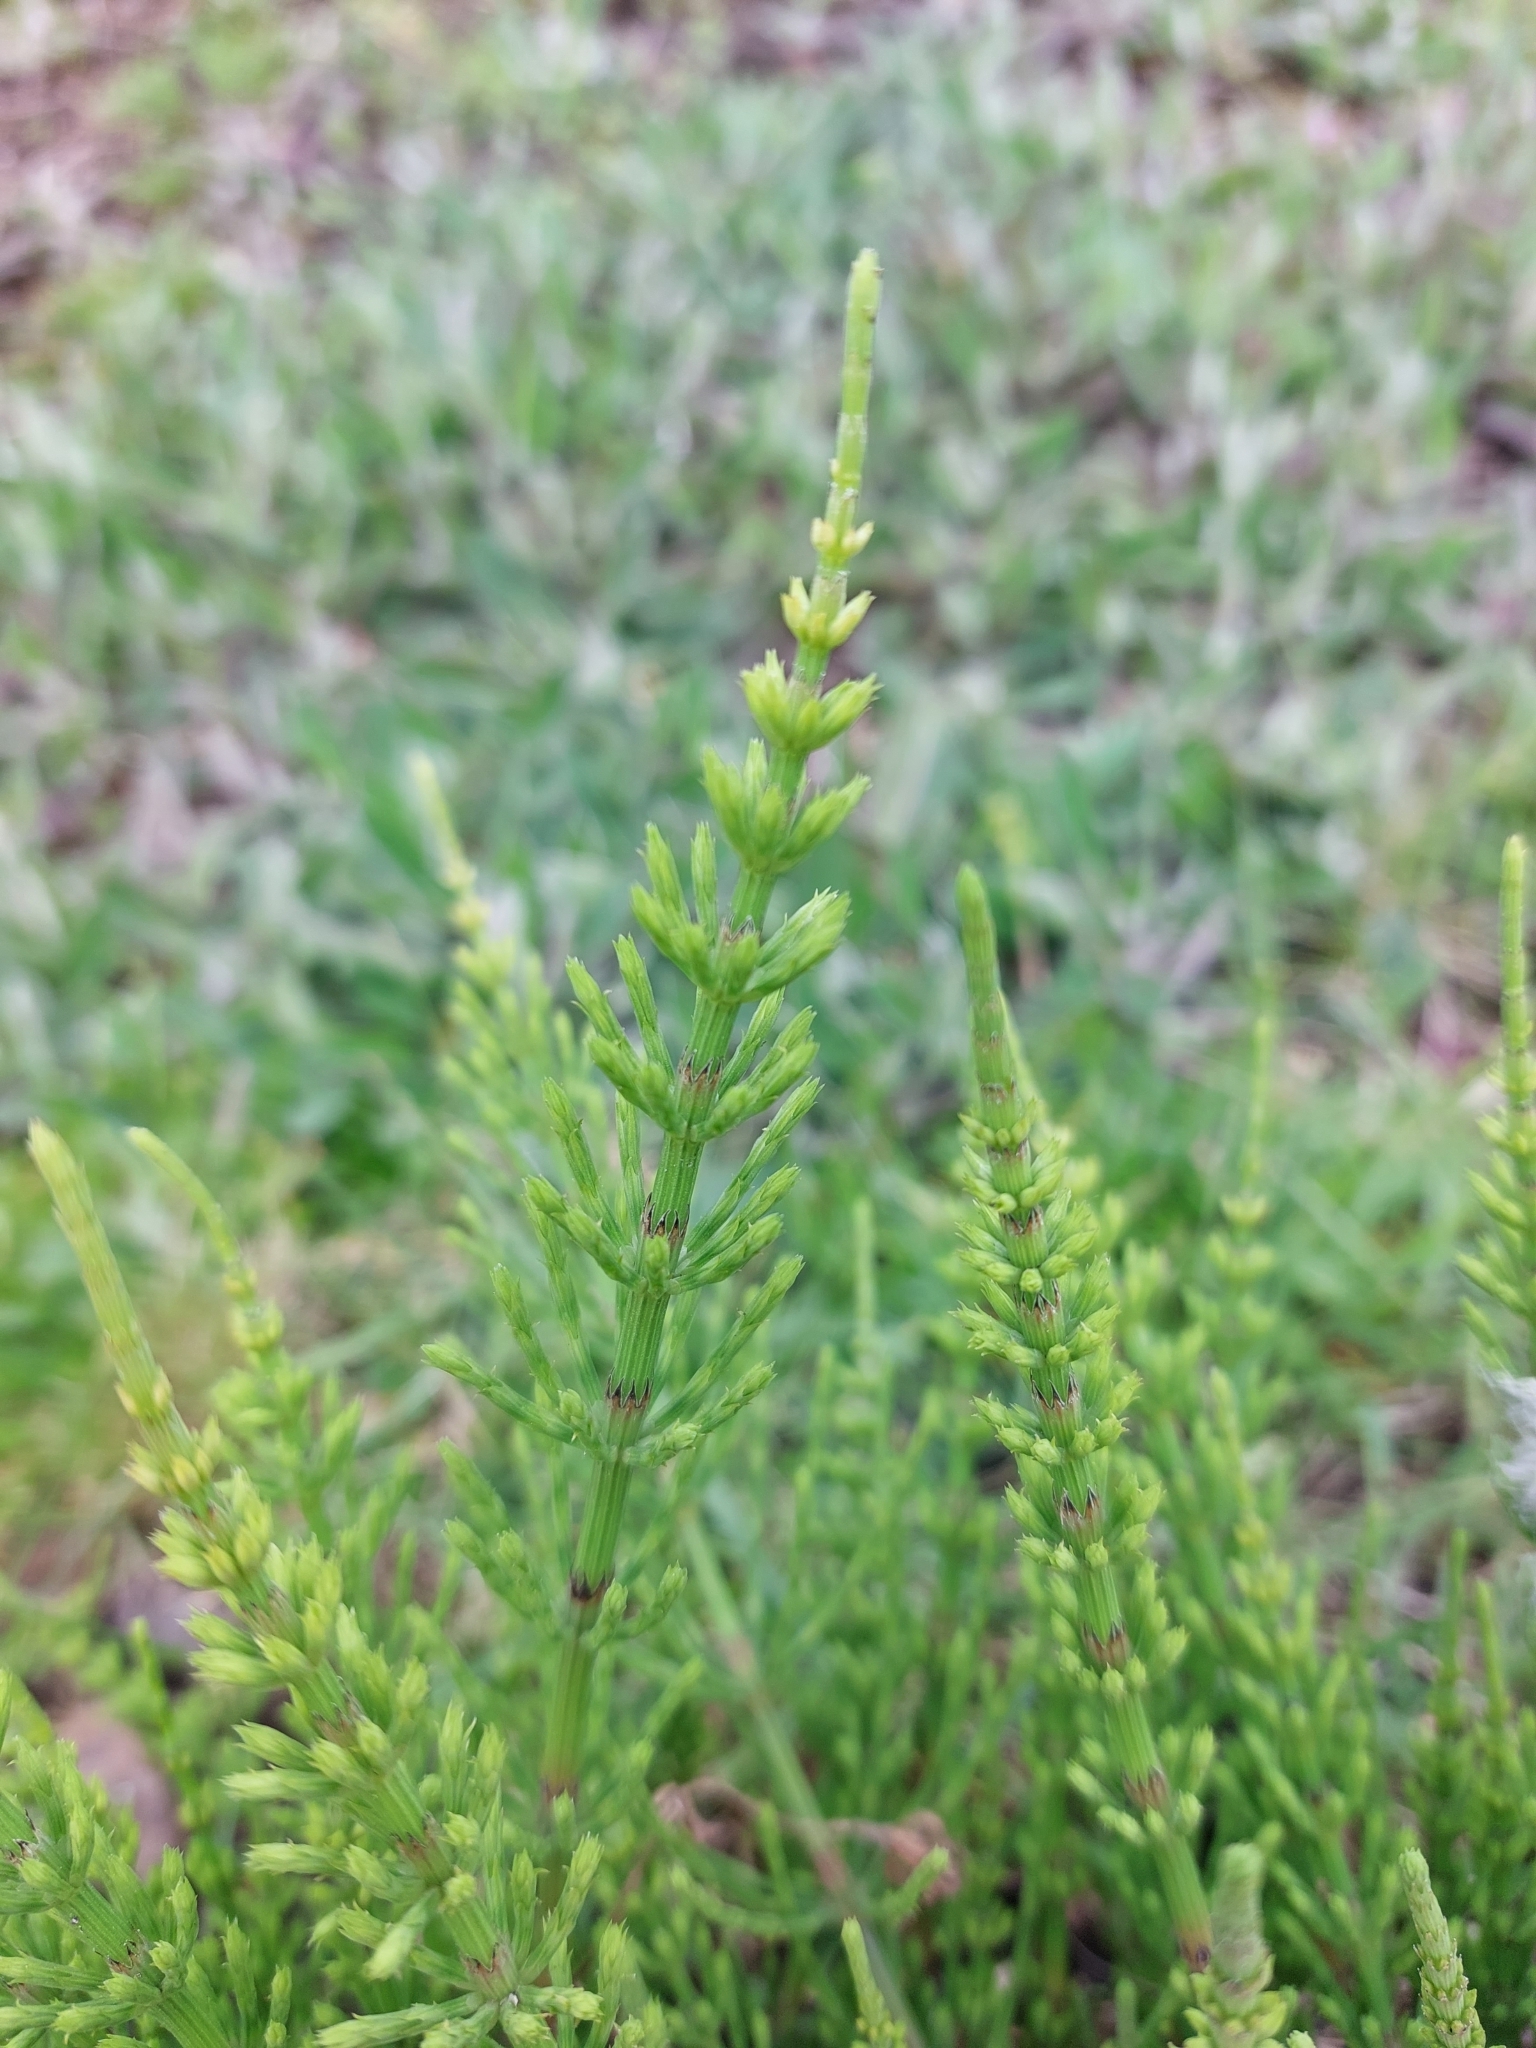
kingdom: Plantae
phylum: Tracheophyta
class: Polypodiopsida
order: Equisetales
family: Equisetaceae
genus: Equisetum
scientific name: Equisetum arvense
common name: Field horsetail
